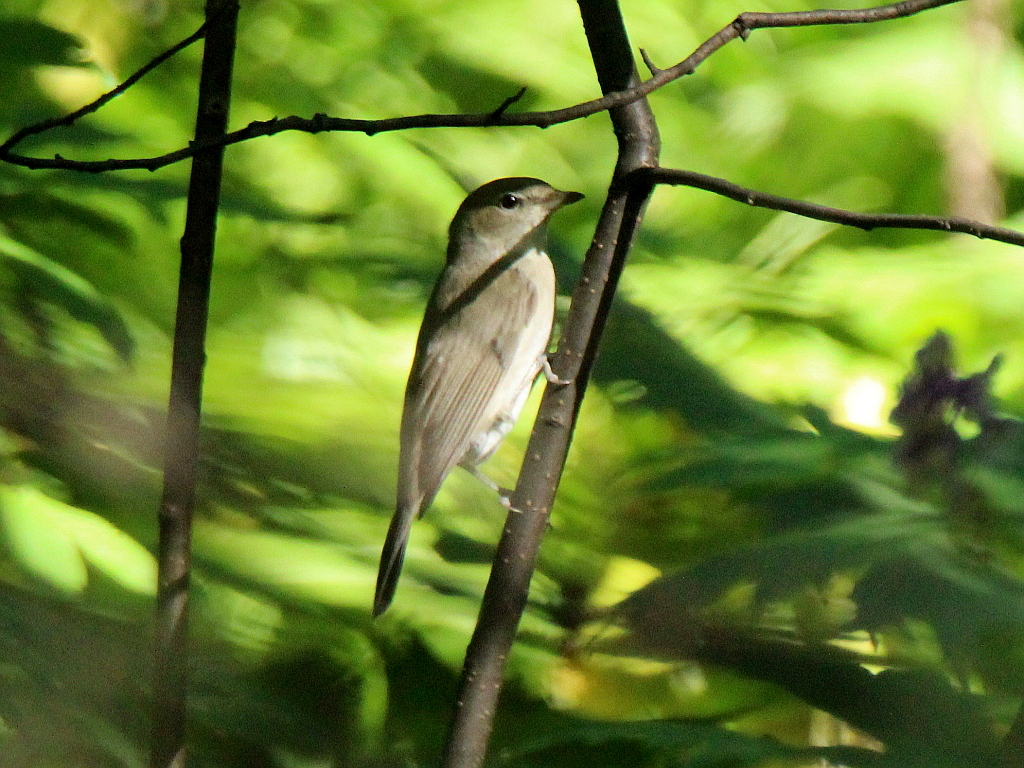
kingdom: Animalia
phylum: Chordata
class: Aves
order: Passeriformes
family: Sylviidae
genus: Sylvia
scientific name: Sylvia borin
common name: Garden warbler
